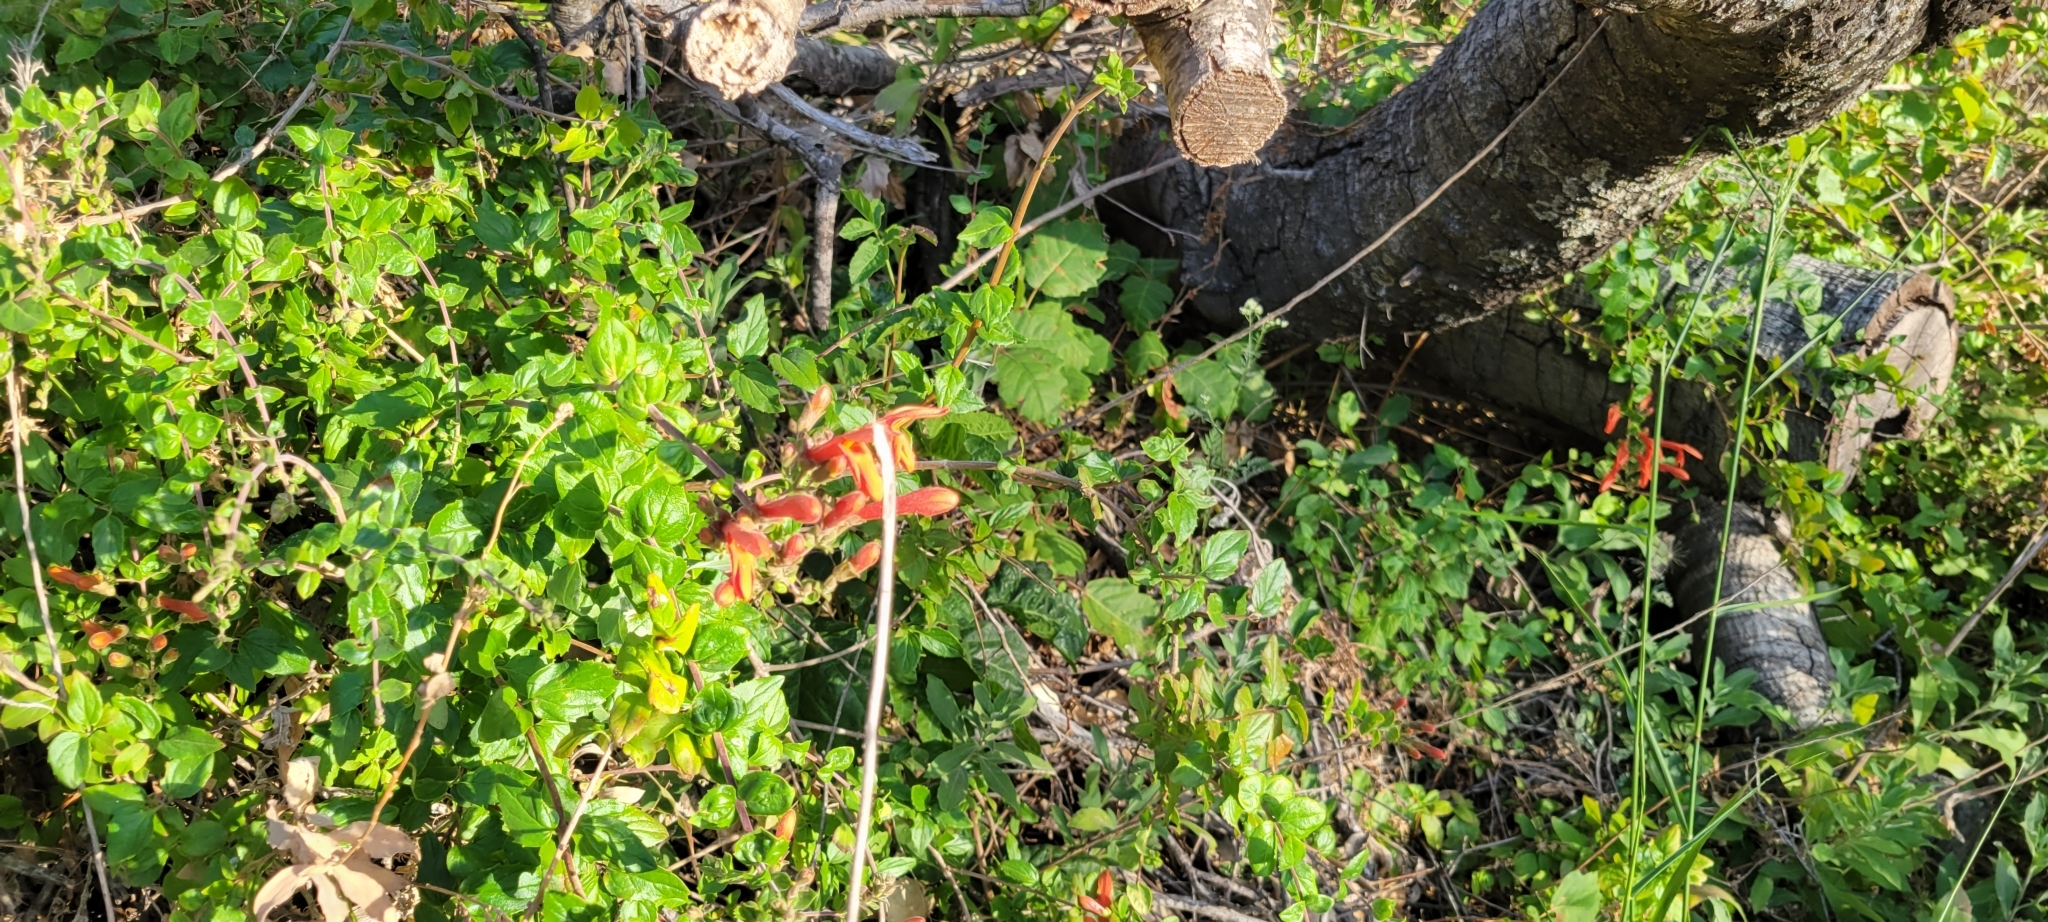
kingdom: Plantae
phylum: Tracheophyta
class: Magnoliopsida
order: Lamiales
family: Plantaginaceae
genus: Keckiella
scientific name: Keckiella cordifolia
